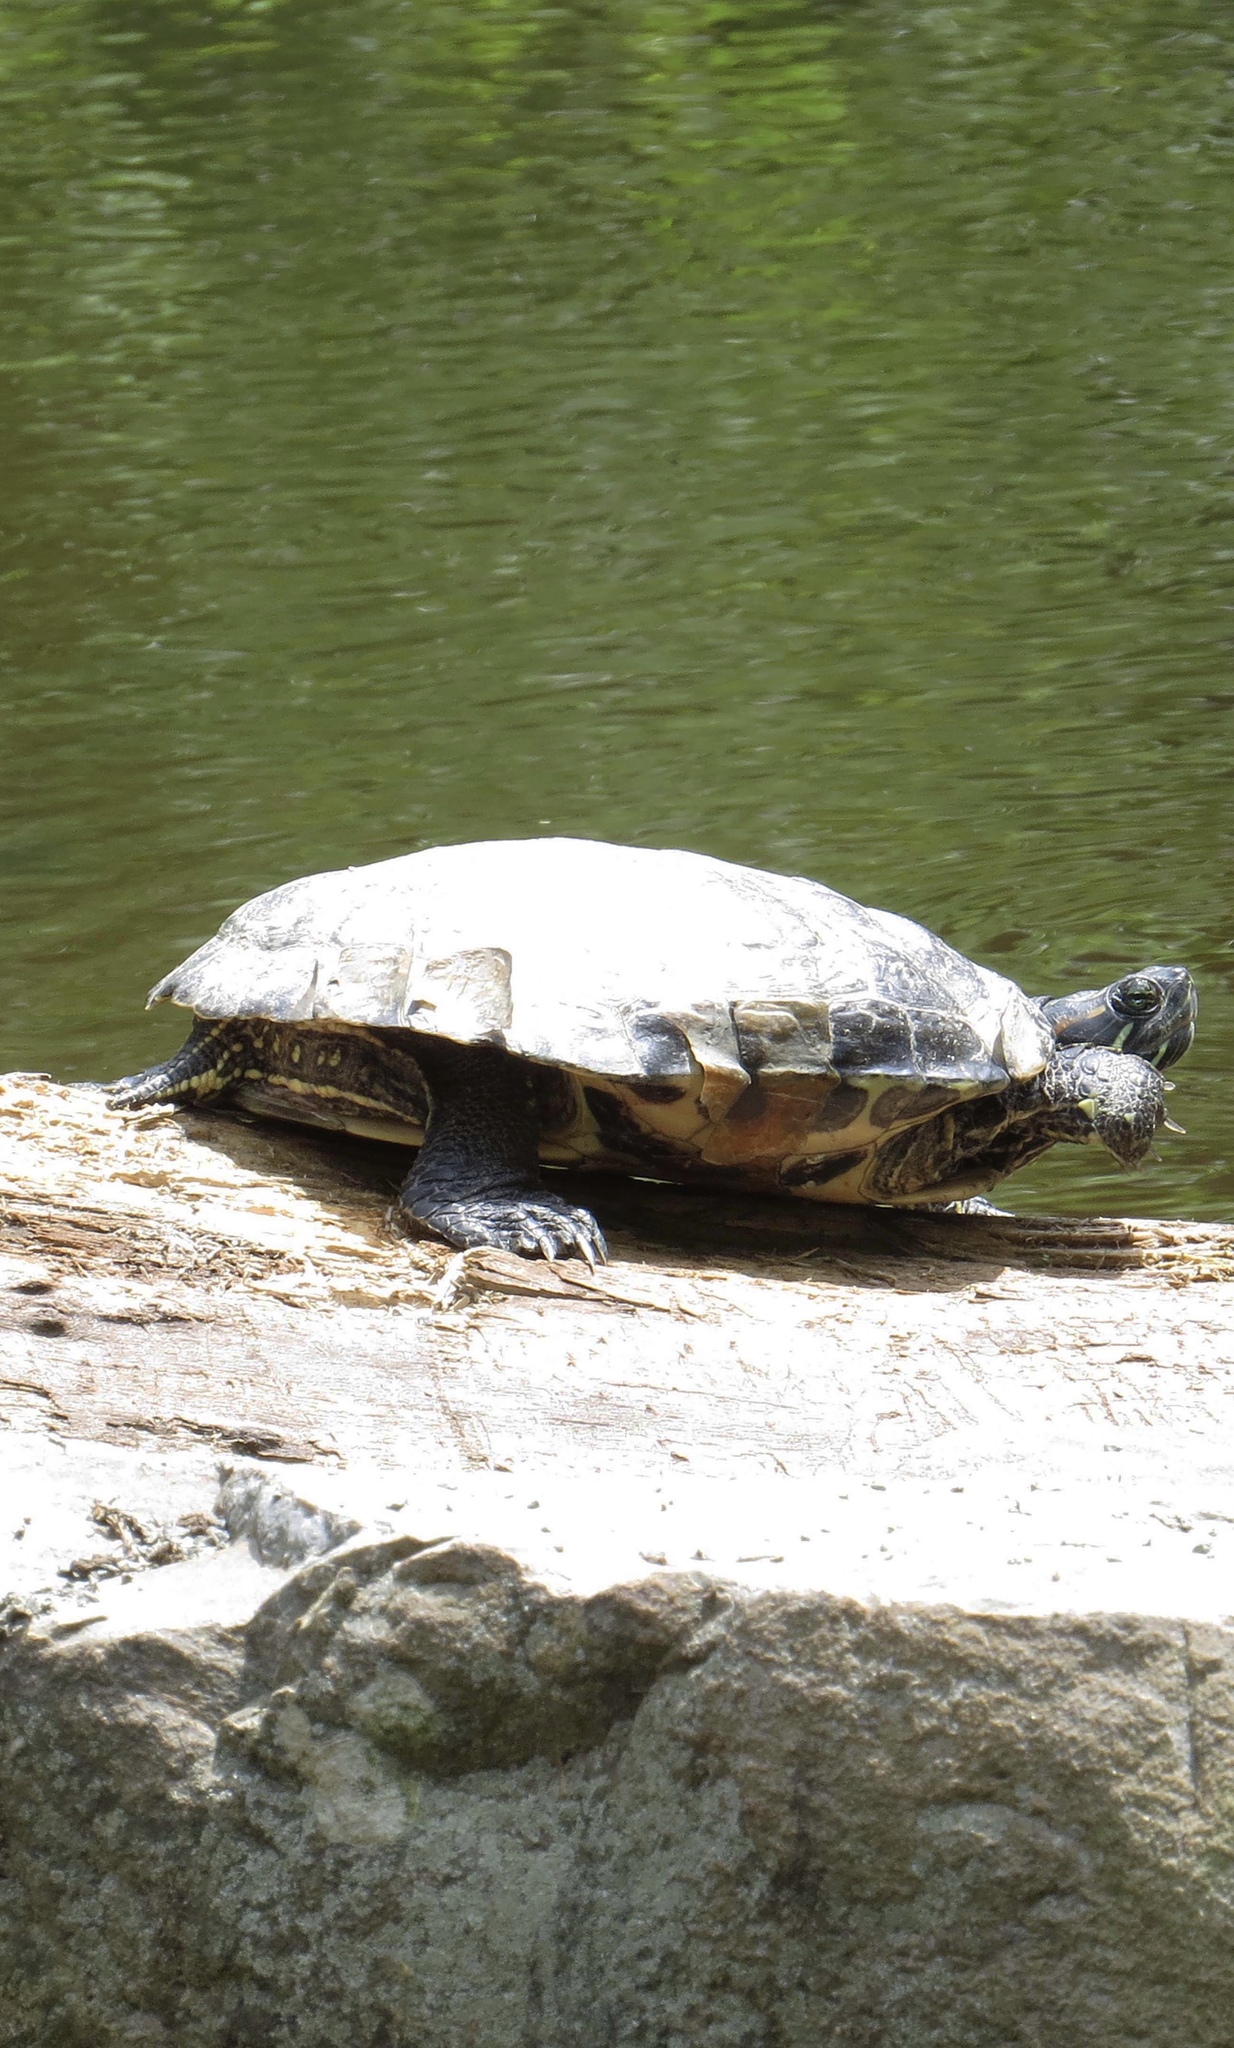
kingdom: Animalia
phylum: Chordata
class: Testudines
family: Emydidae
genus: Trachemys
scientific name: Trachemys scripta
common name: Slider
